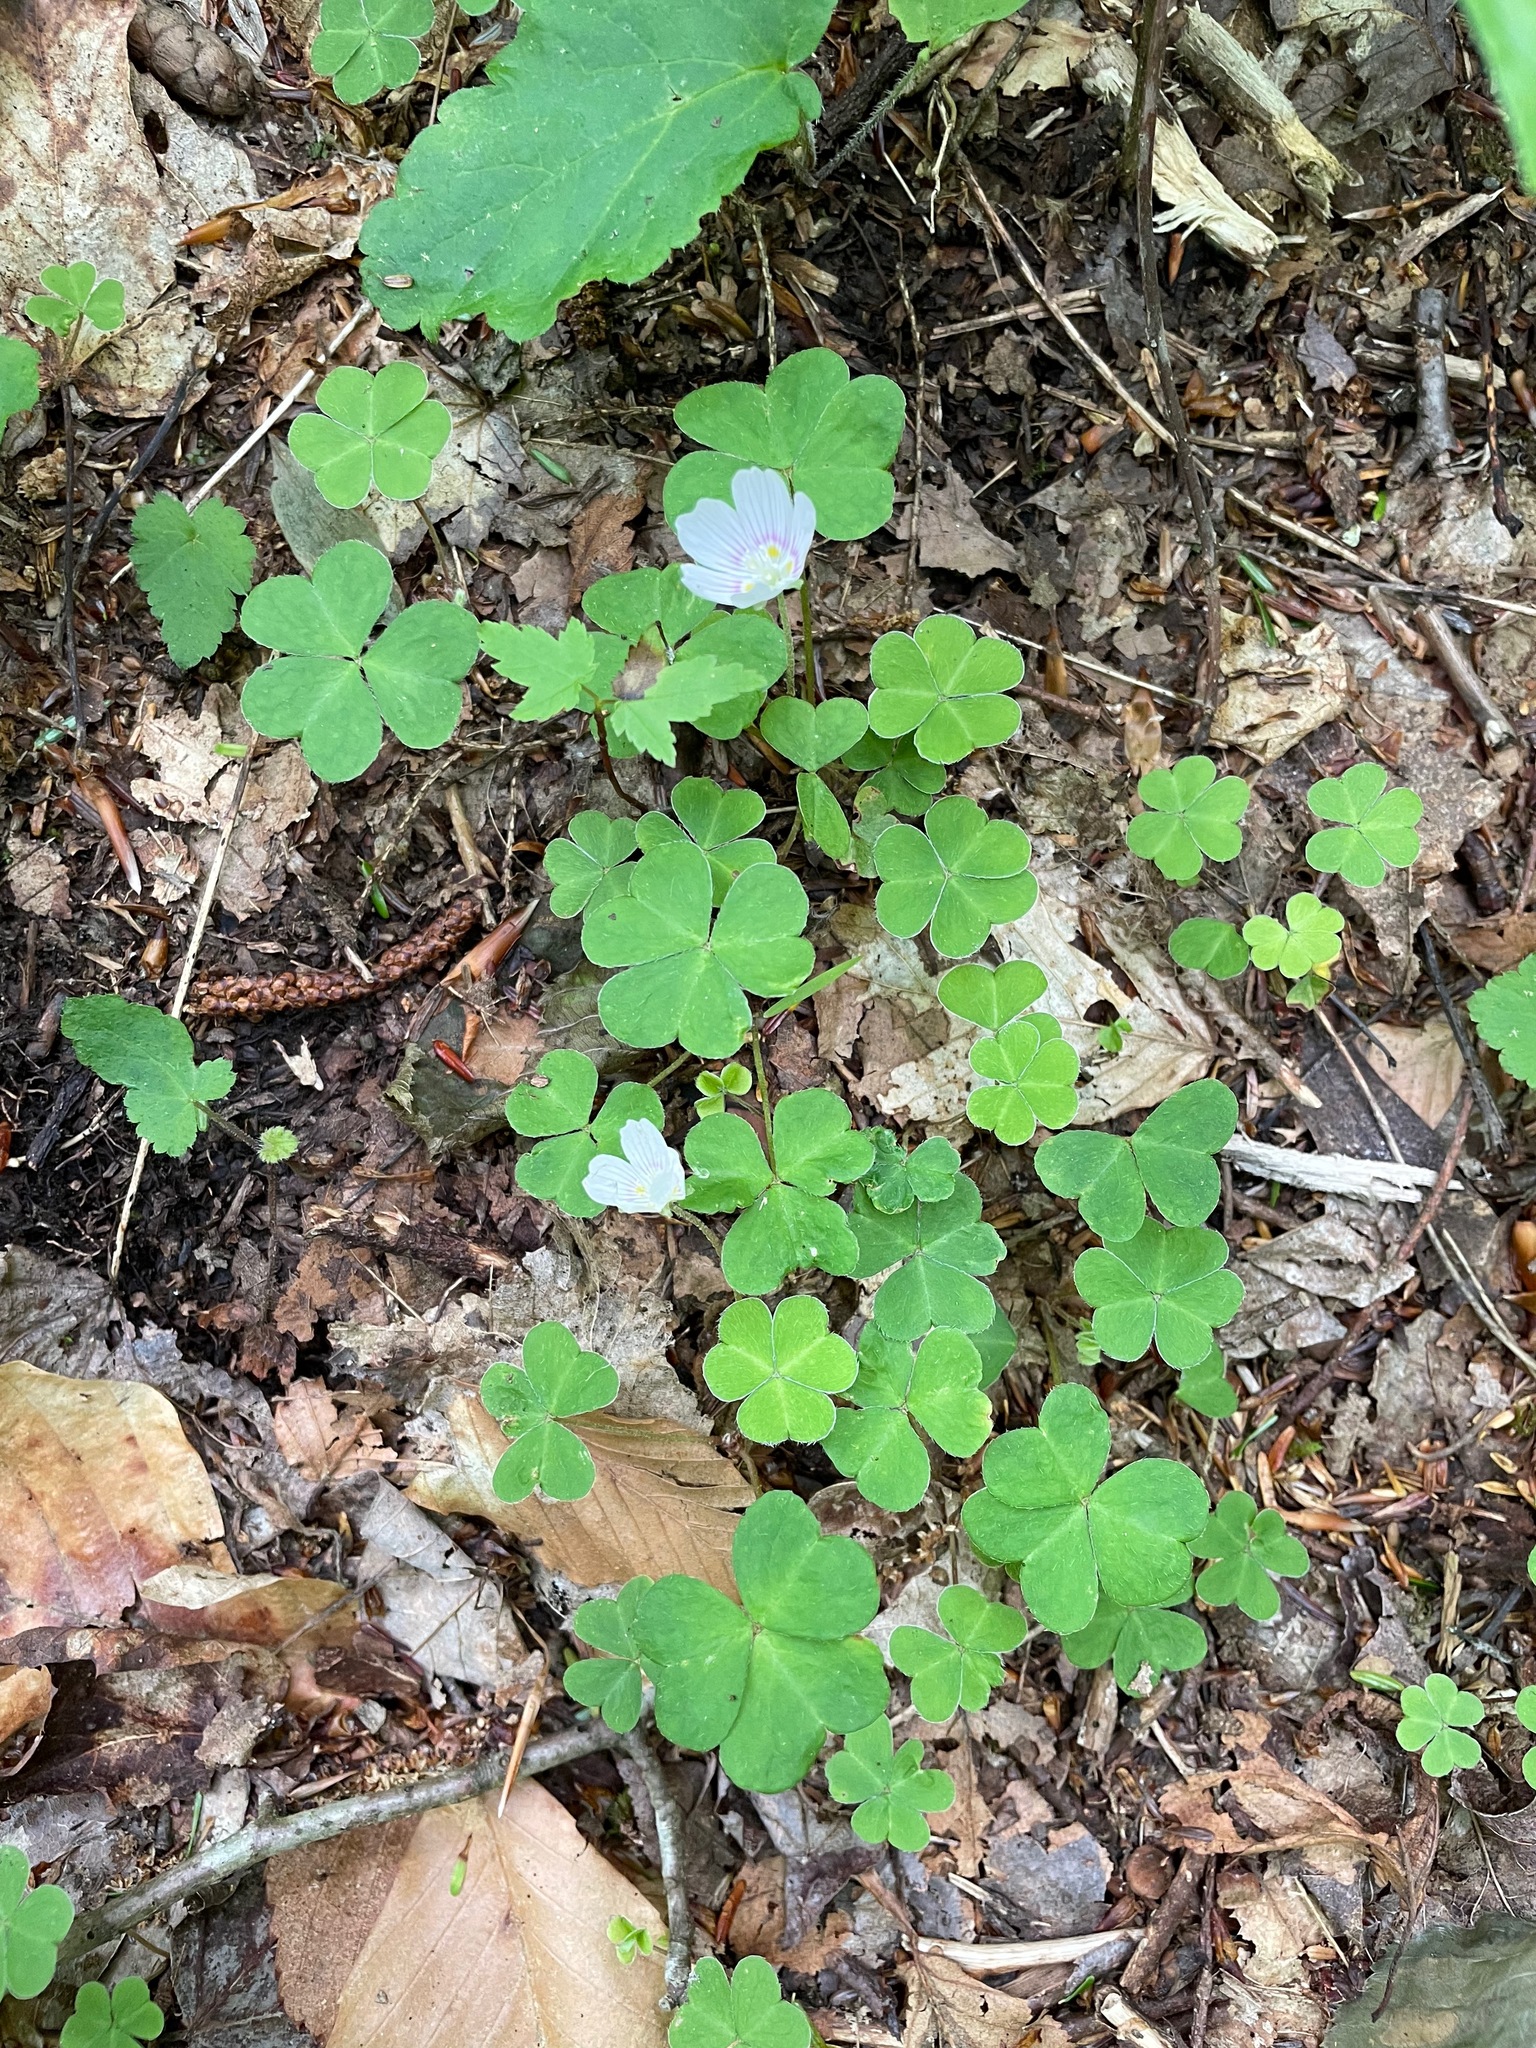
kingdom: Plantae
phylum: Tracheophyta
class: Magnoliopsida
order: Oxalidales
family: Oxalidaceae
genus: Oxalis
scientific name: Oxalis montana
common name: American wood-sorrel
